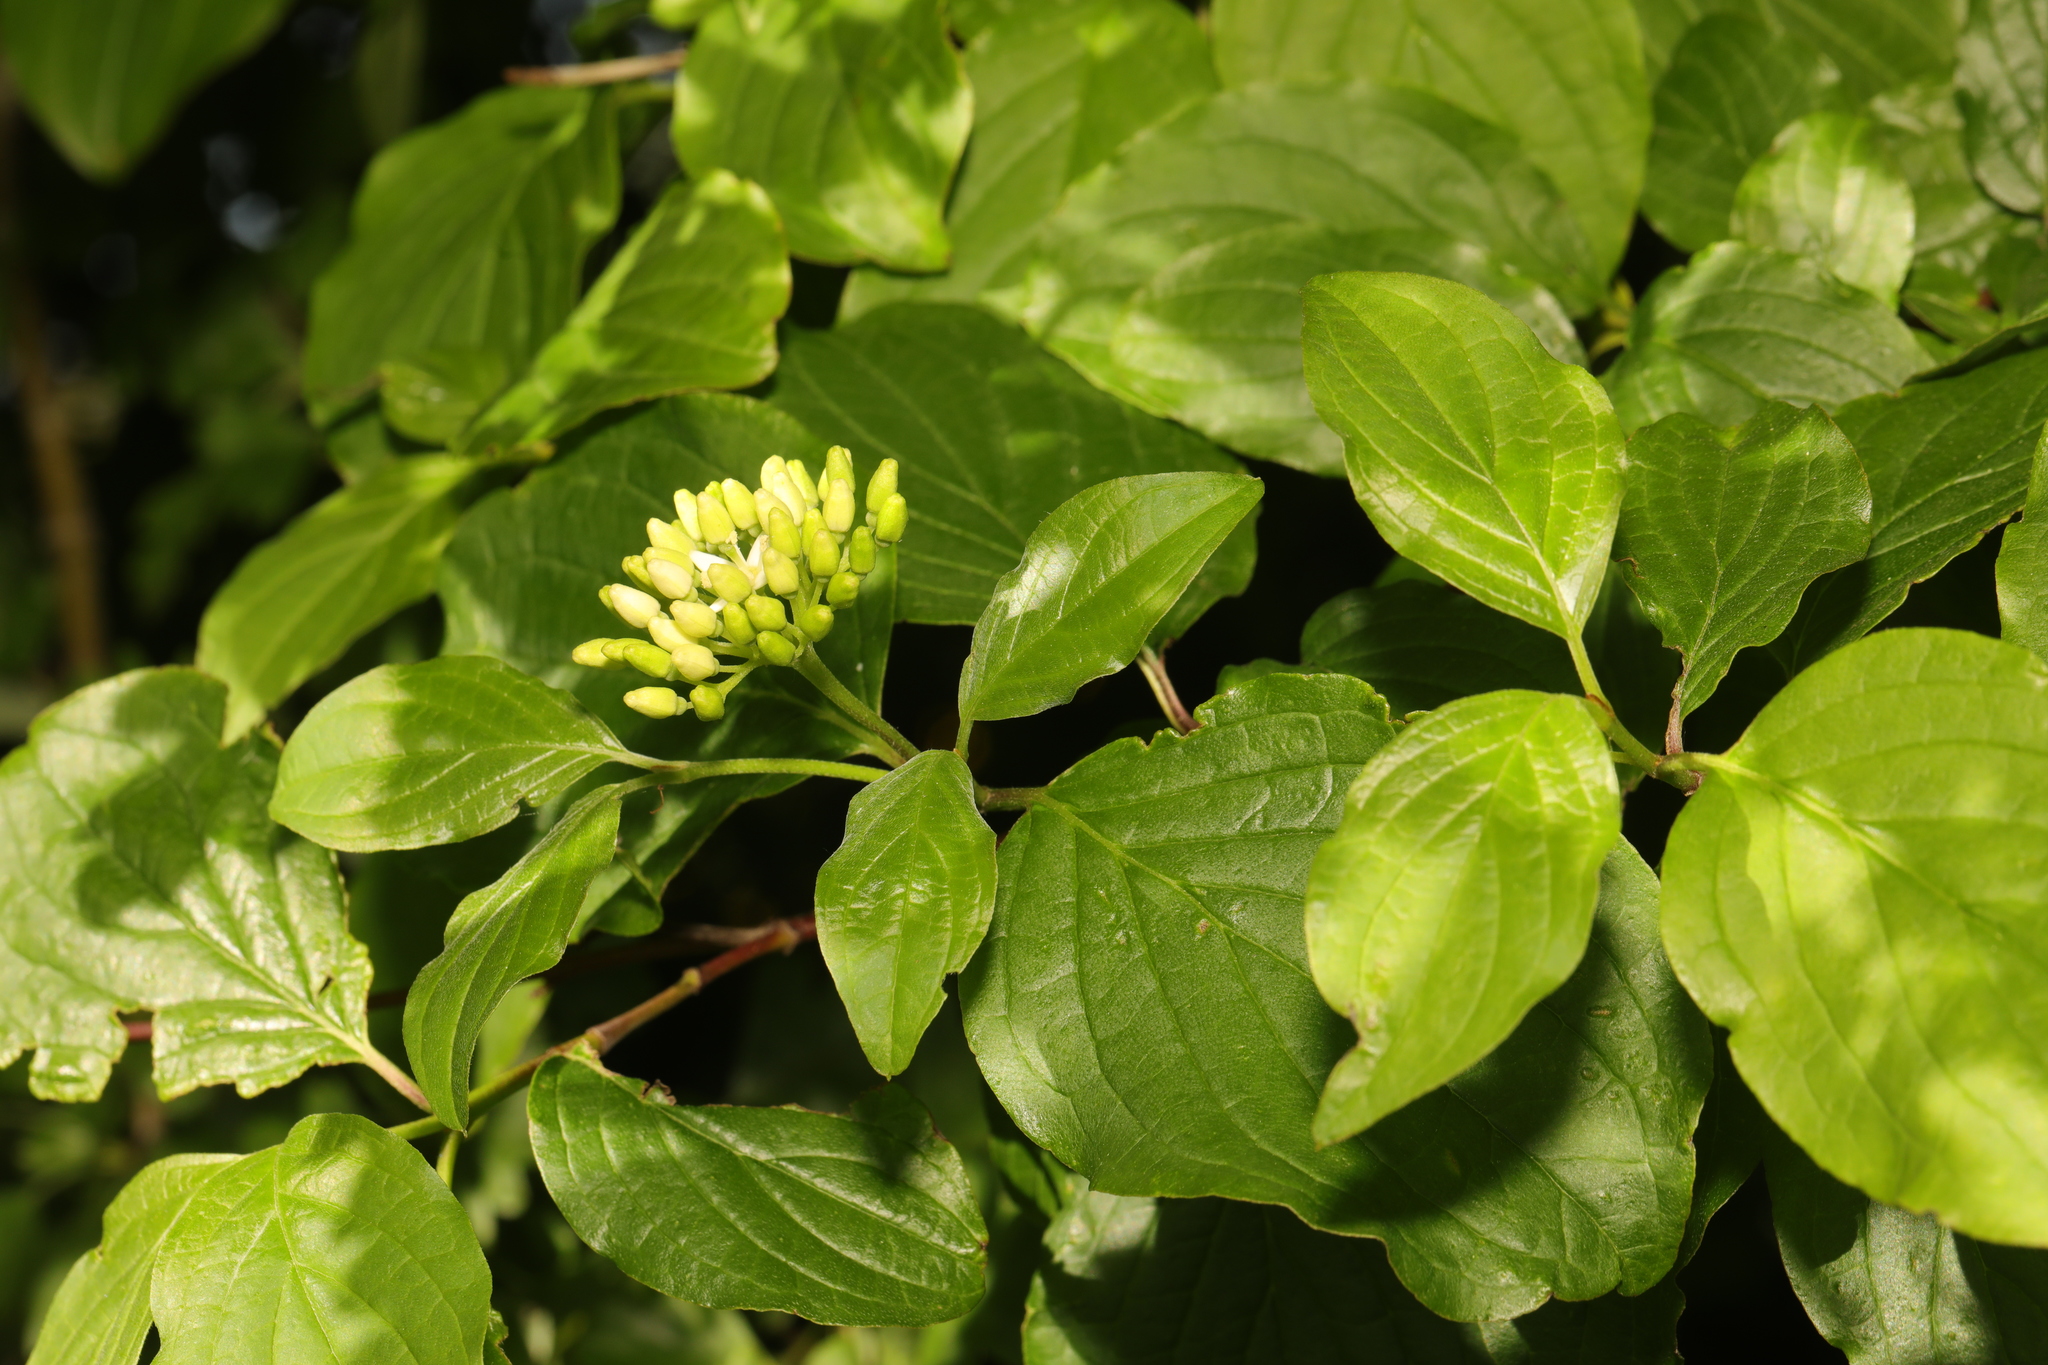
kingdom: Plantae
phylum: Tracheophyta
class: Magnoliopsida
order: Cornales
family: Cornaceae
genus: Cornus
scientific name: Cornus sanguinea
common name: Dogwood
